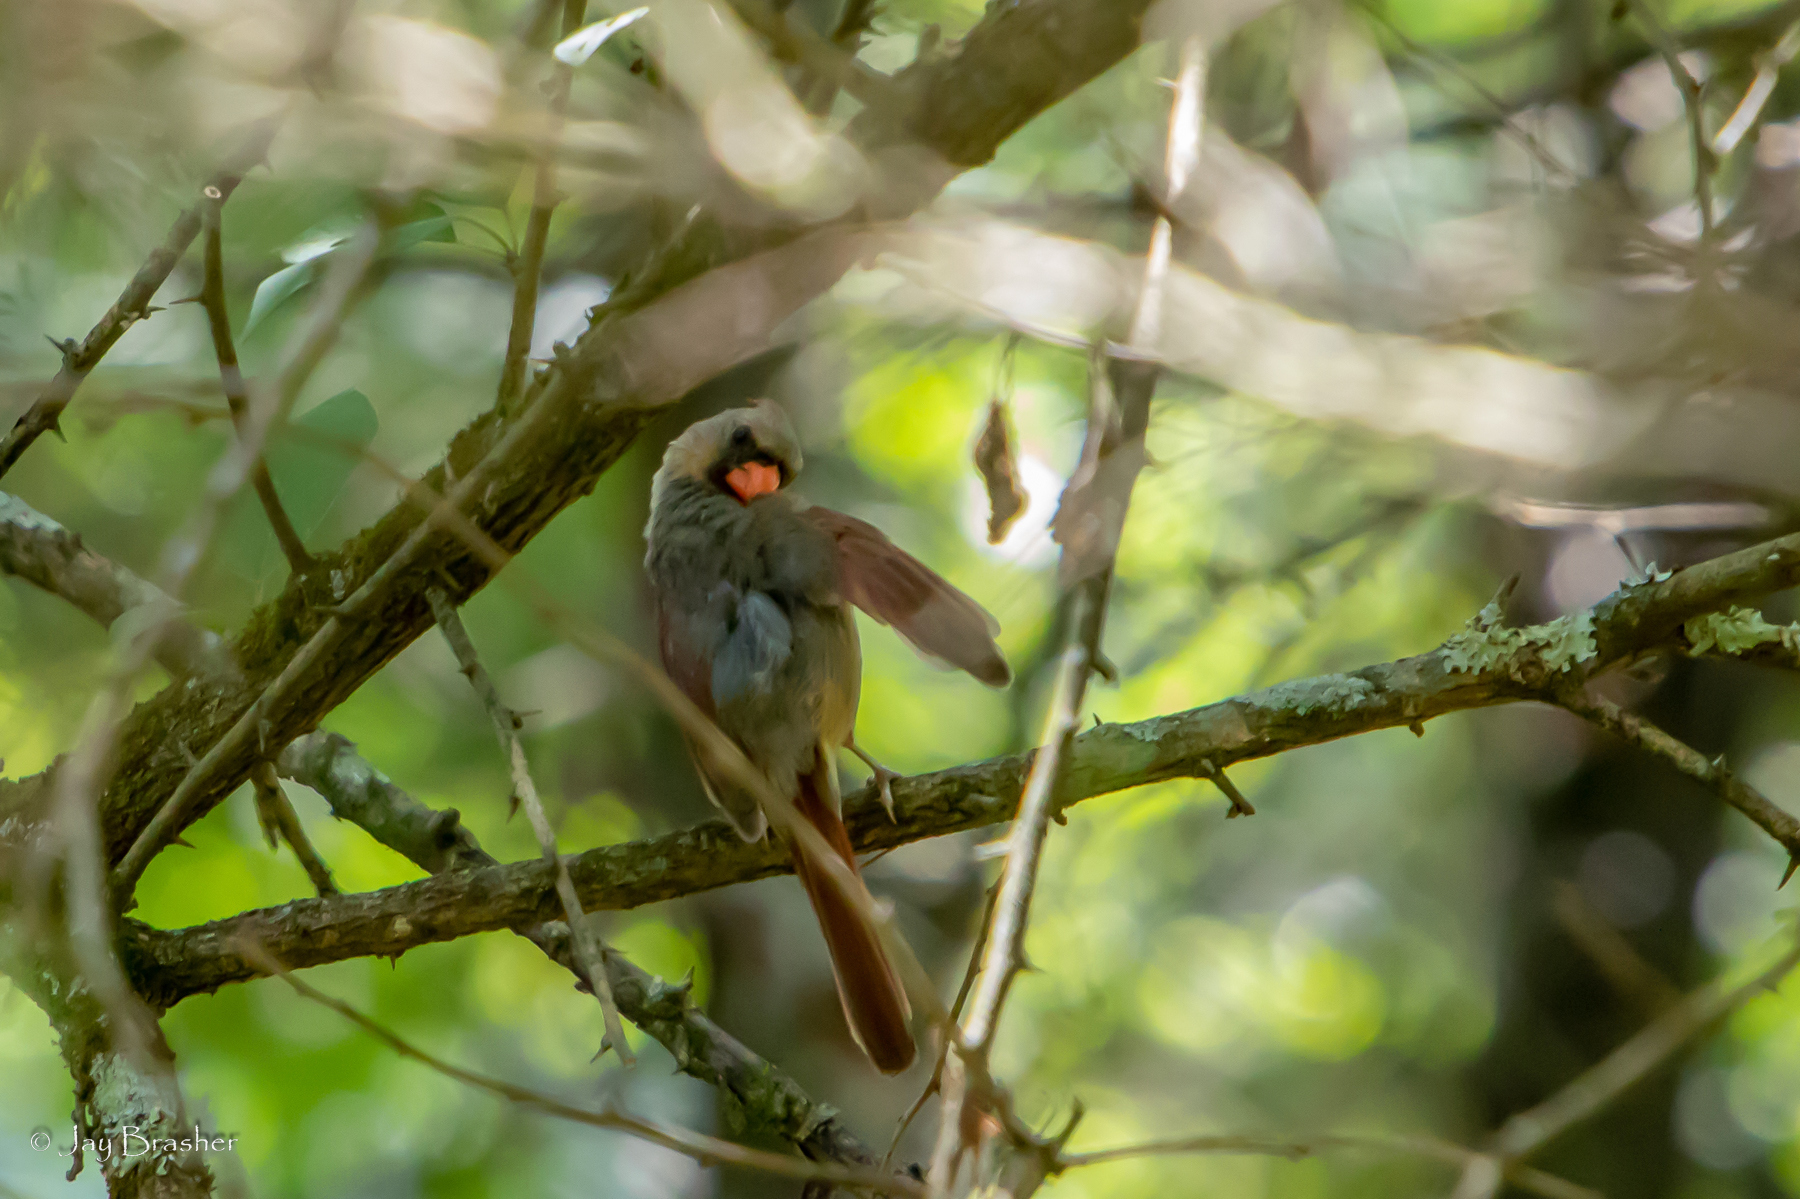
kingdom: Animalia
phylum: Chordata
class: Aves
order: Passeriformes
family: Cardinalidae
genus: Cardinalis
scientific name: Cardinalis cardinalis
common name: Northern cardinal
